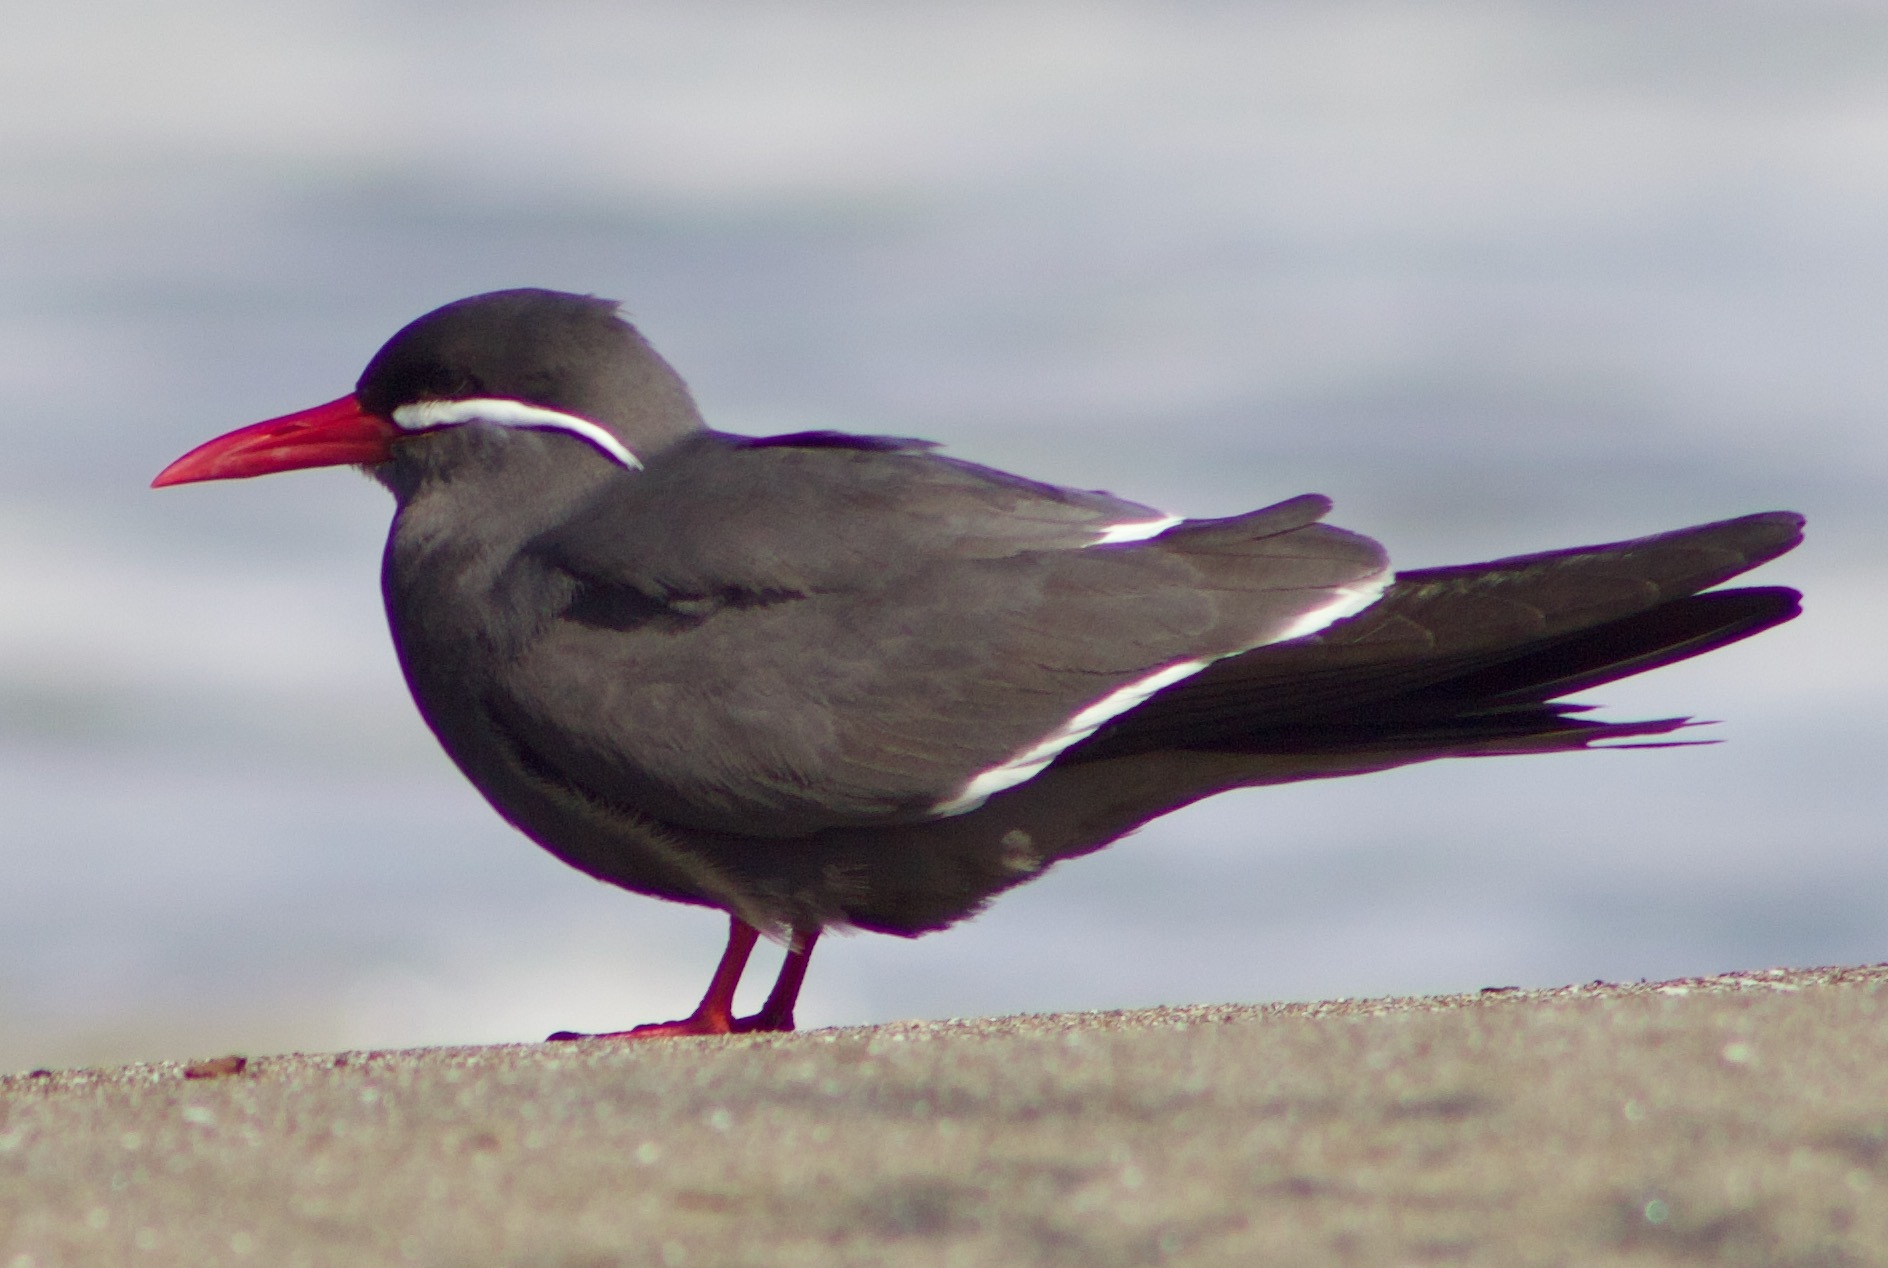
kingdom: Animalia
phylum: Chordata
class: Aves
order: Charadriiformes
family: Laridae
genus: Larosterna
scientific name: Larosterna inca
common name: Inca tern
